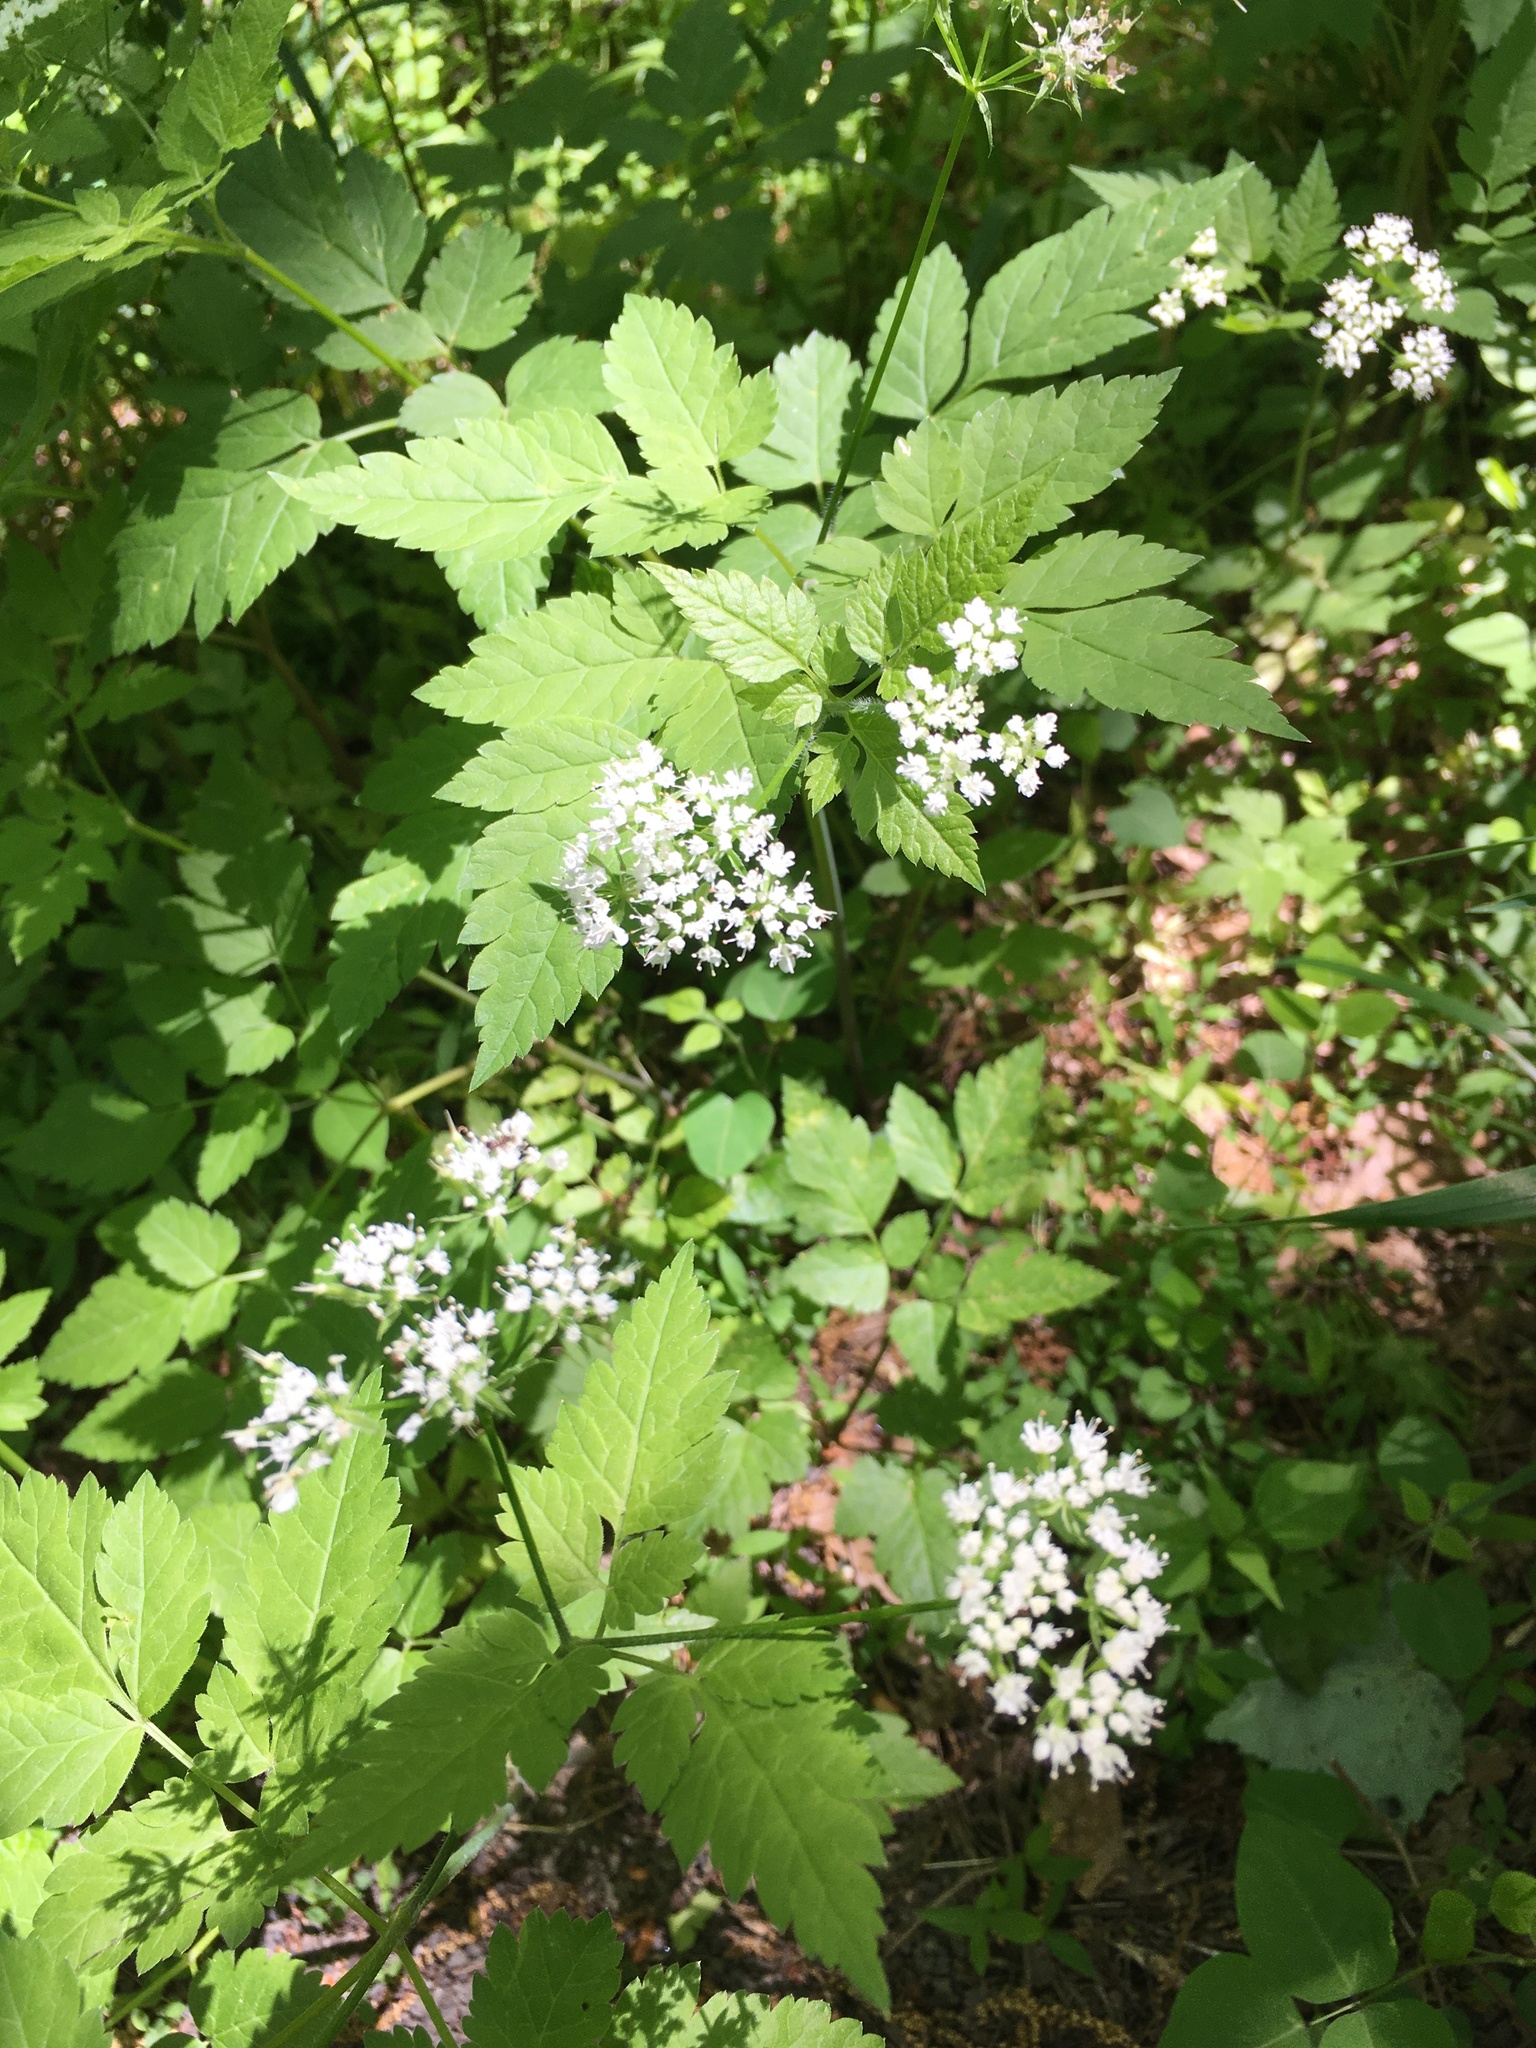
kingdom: Plantae
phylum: Tracheophyta
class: Magnoliopsida
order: Apiales
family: Apiaceae
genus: Osmorhiza
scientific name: Osmorhiza longistylis
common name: Smooth sweet cicely
